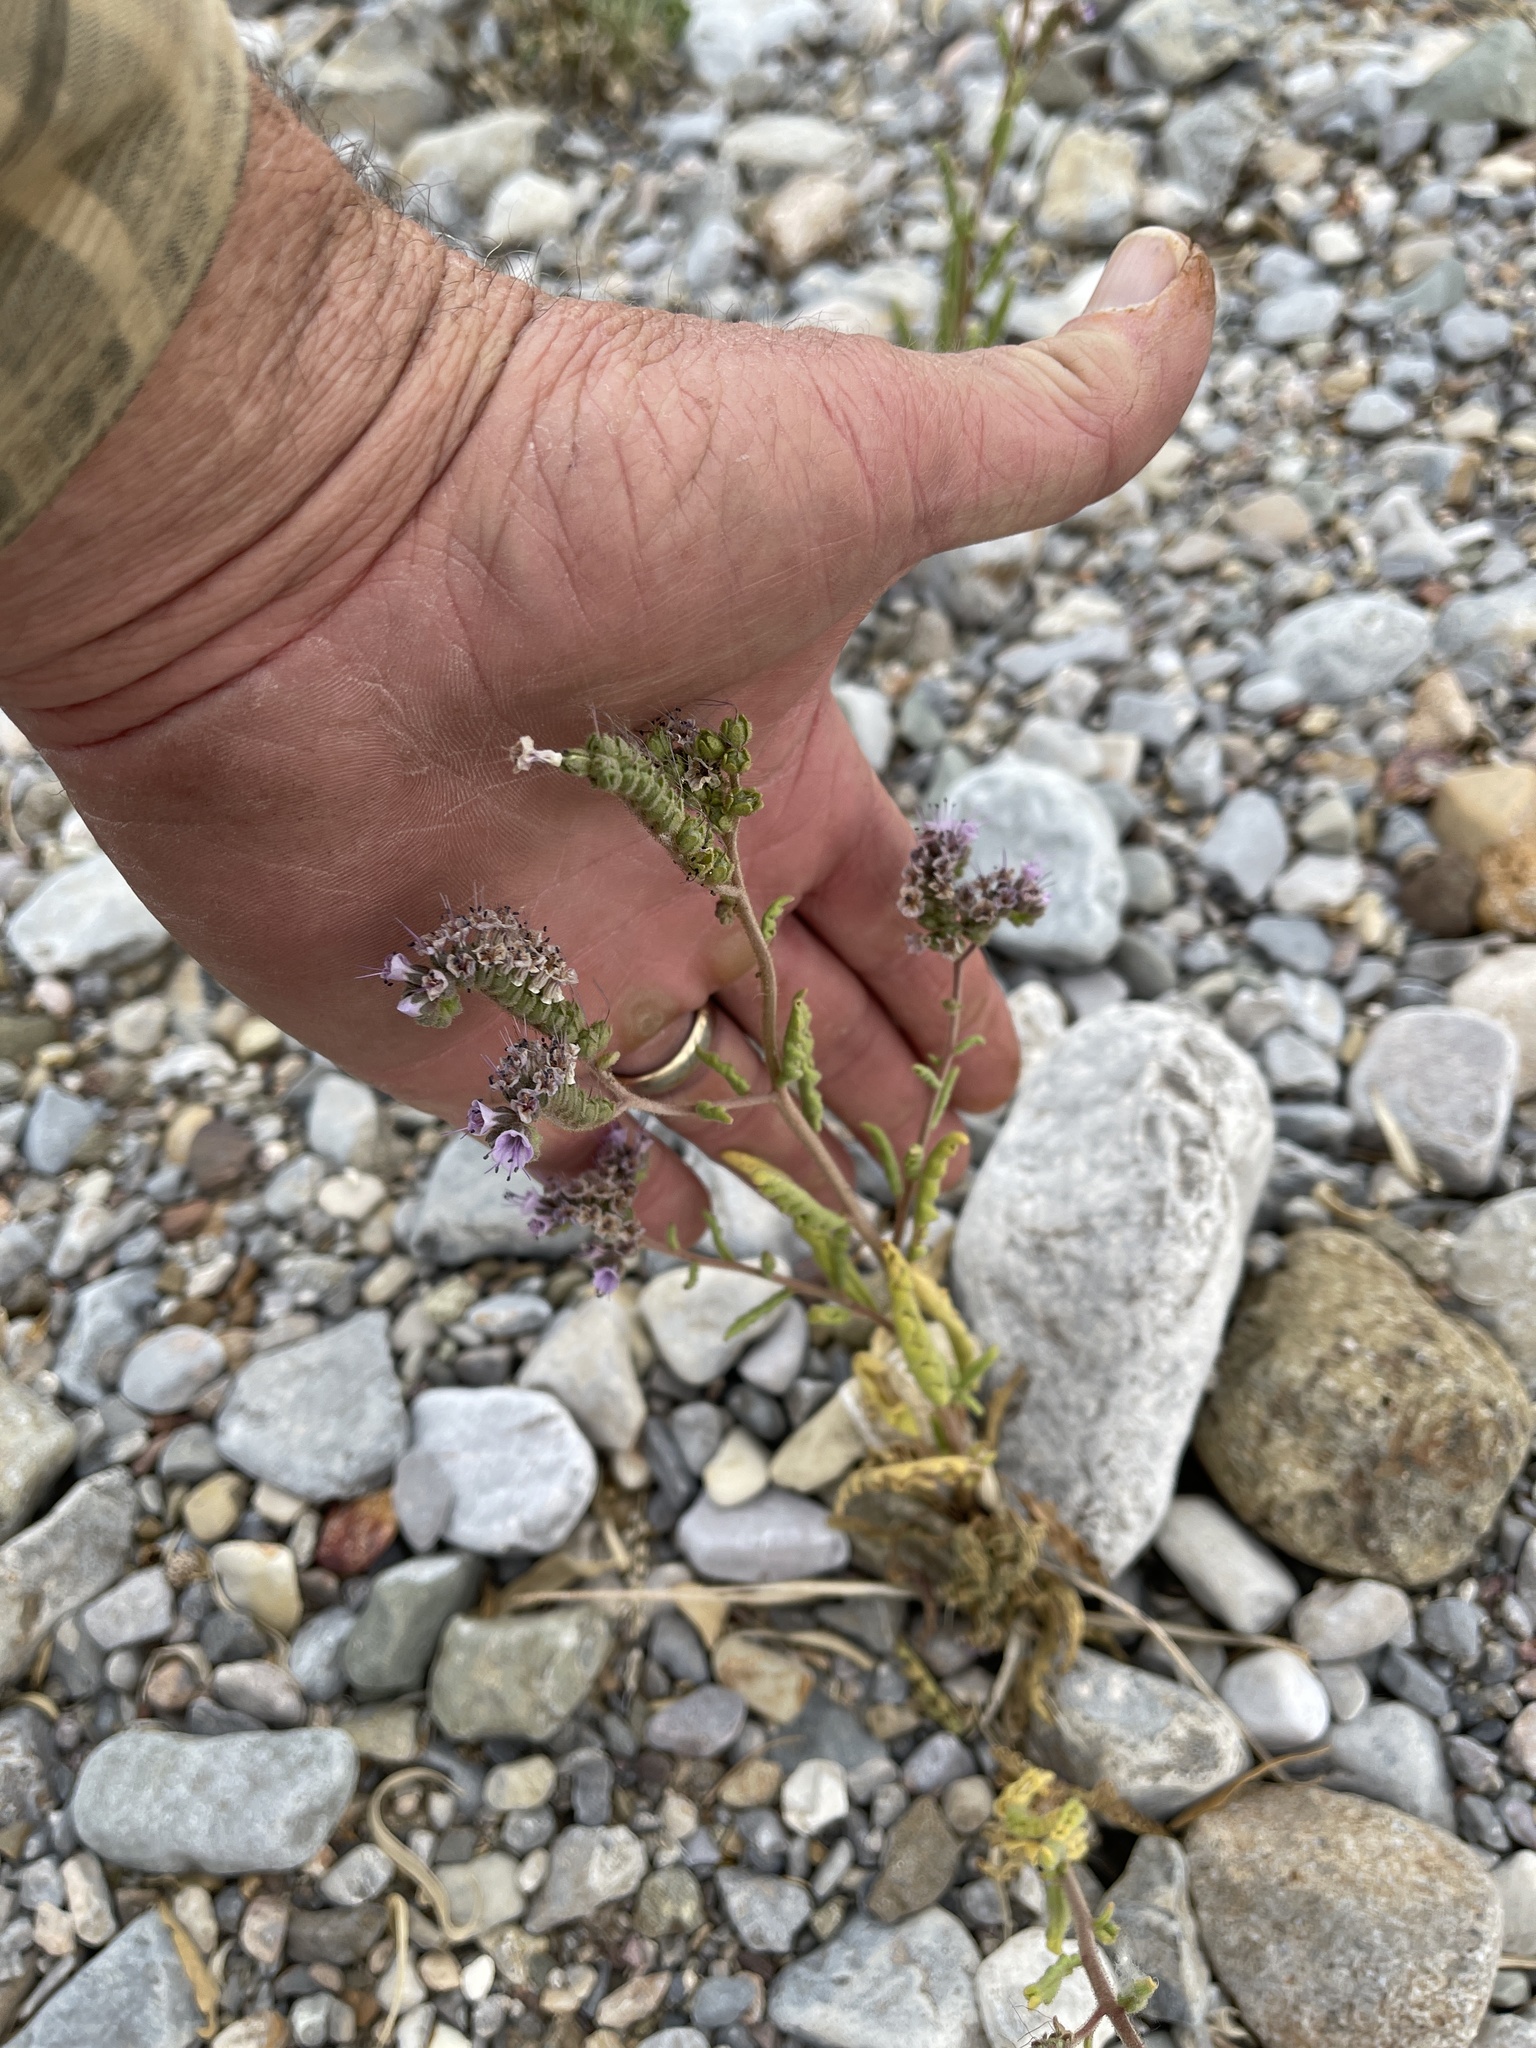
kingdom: Plantae
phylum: Tracheophyta
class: Magnoliopsida
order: Boraginales
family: Hydrophyllaceae
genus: Phacelia
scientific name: Phacelia integrifolia
